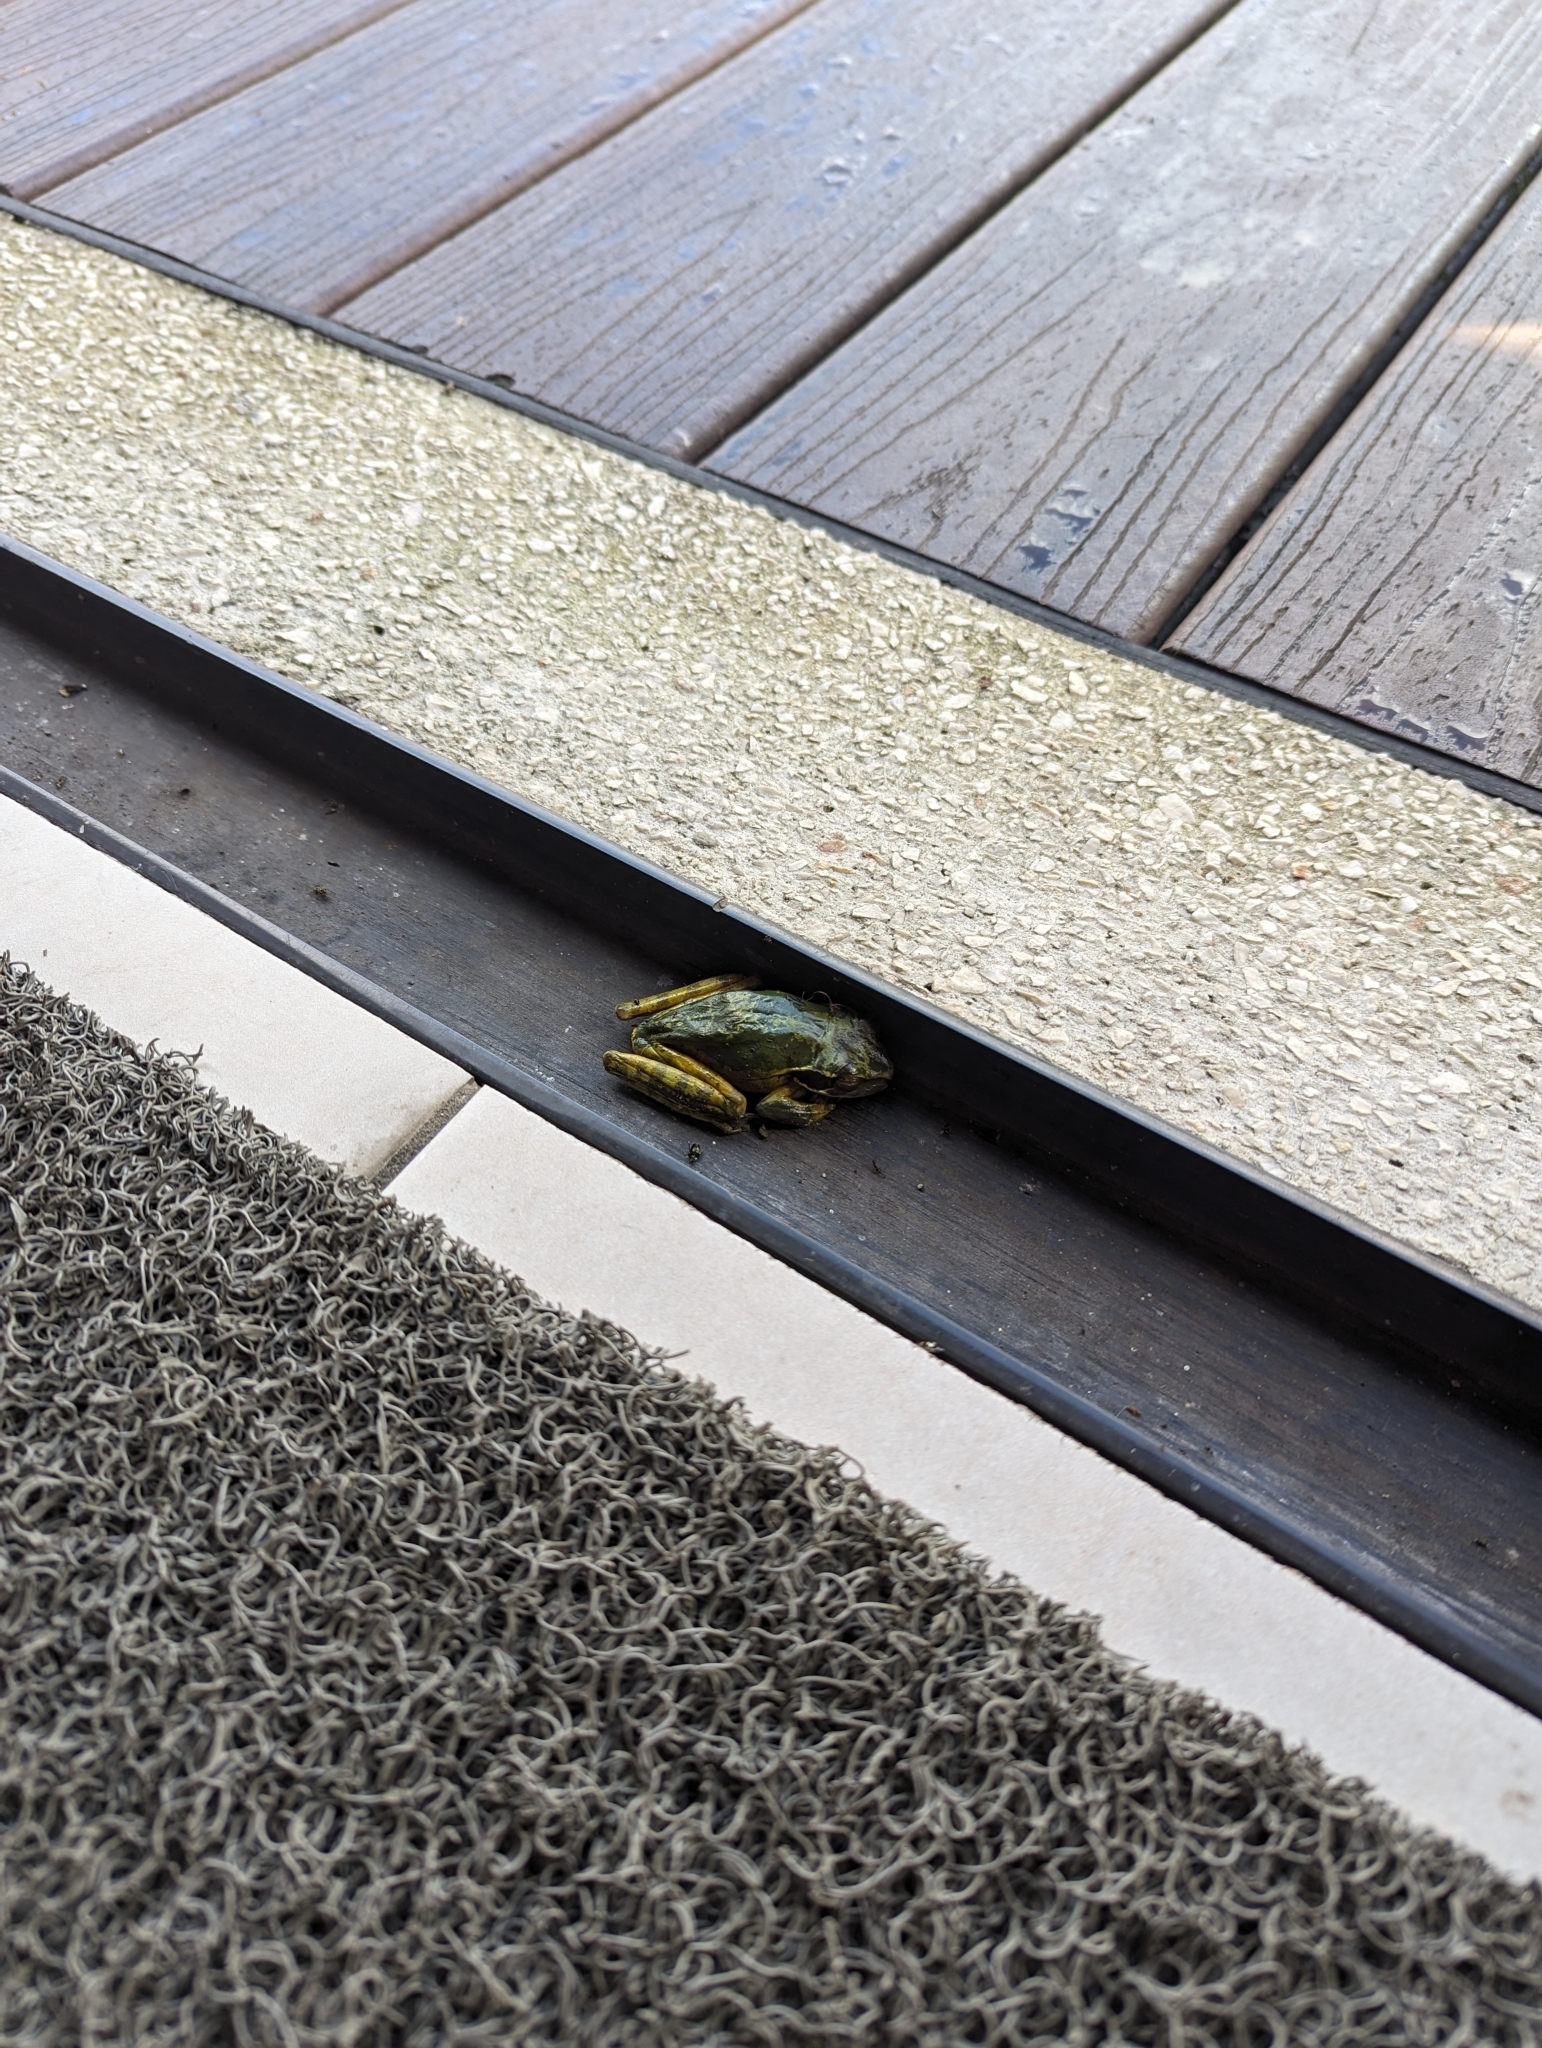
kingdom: Animalia
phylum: Chordata
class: Amphibia
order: Anura
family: Hylidae
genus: Smilisca
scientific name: Smilisca phaeota
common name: Central american smilisca
